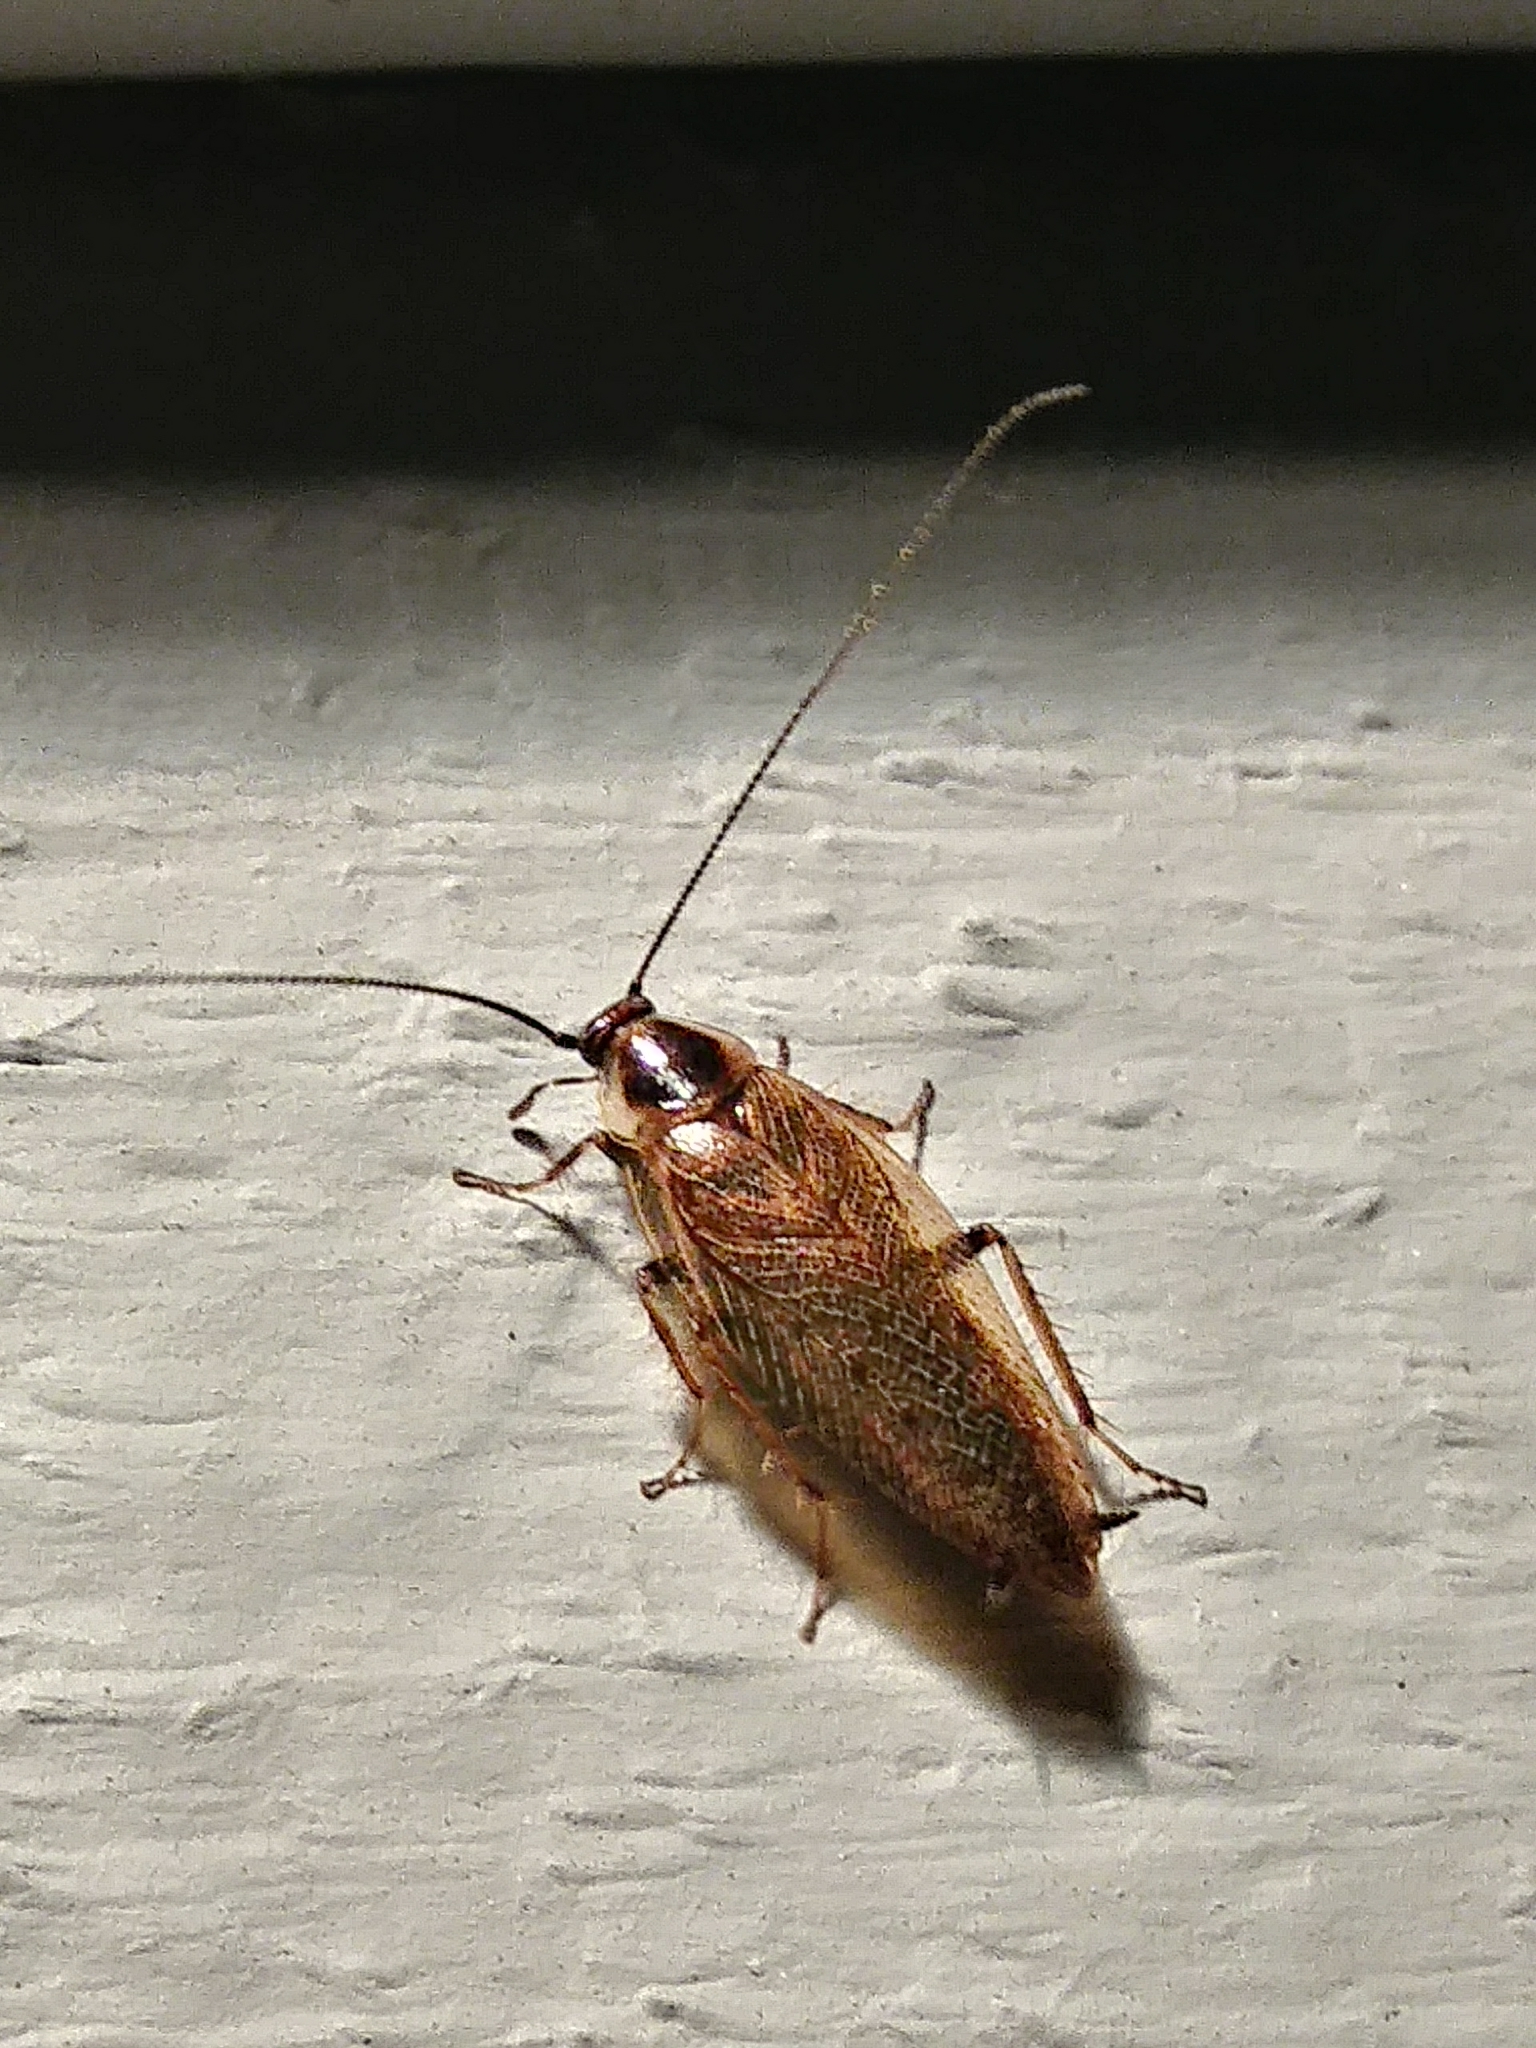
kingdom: Animalia
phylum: Arthropoda
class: Insecta
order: Blattodea
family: Ectobiidae
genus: Ectobius
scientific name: Ectobius lapponicus
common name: Dusky cockroach
